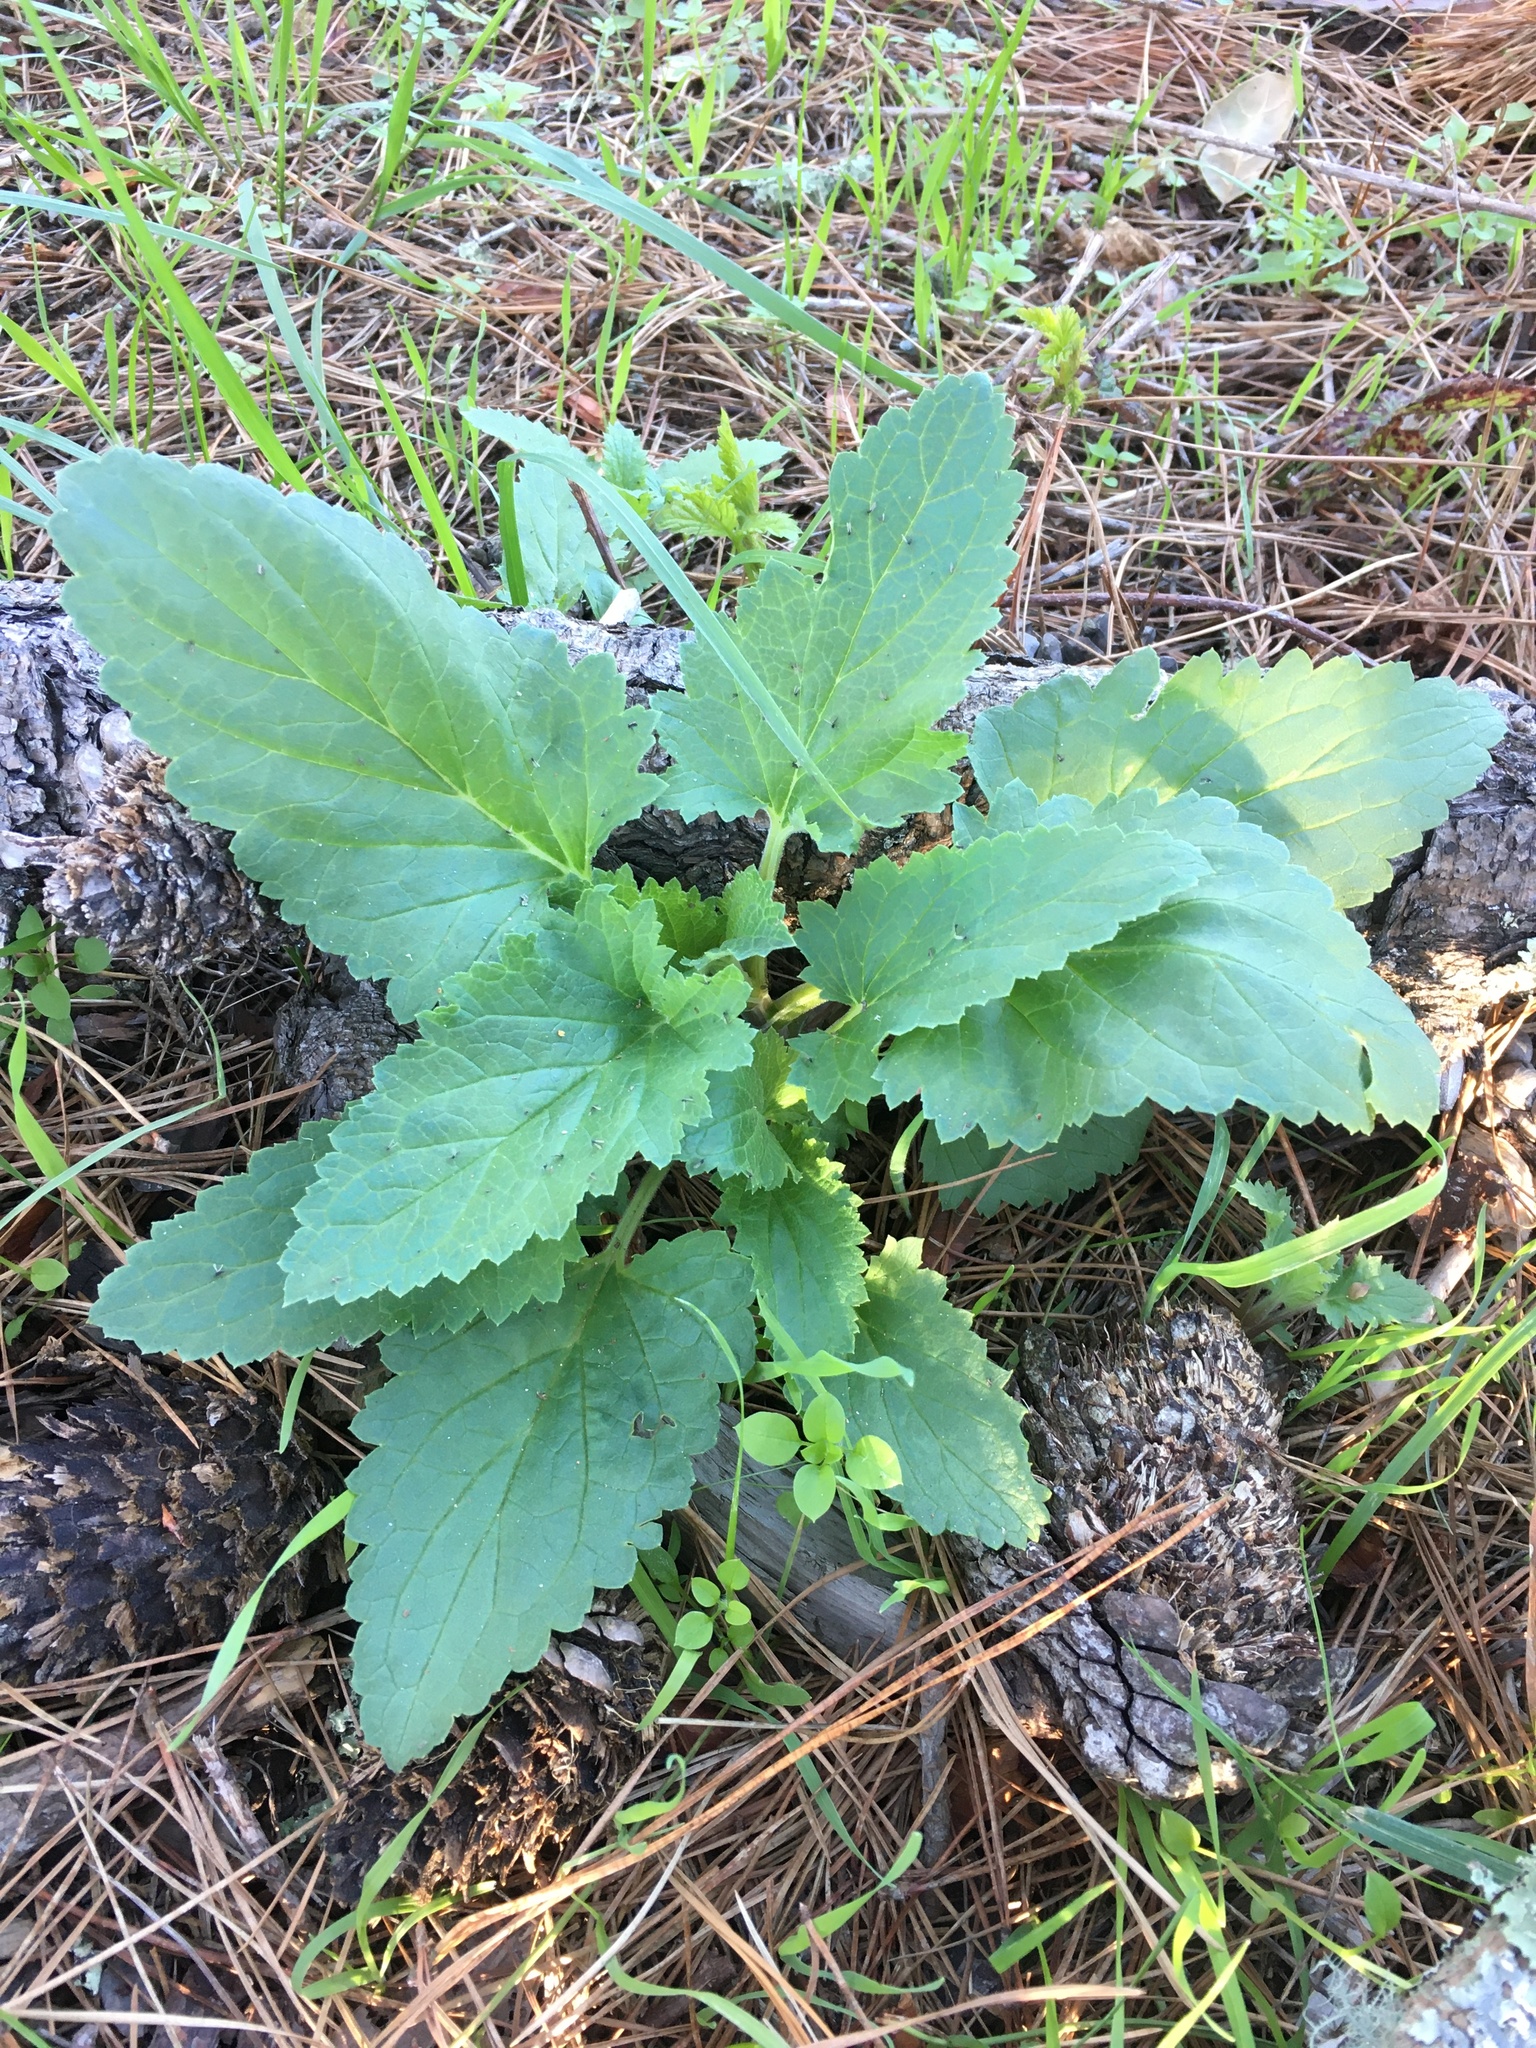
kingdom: Plantae
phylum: Tracheophyta
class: Magnoliopsida
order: Lamiales
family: Scrophulariaceae
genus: Scrophularia
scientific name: Scrophularia californica
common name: California figwort
